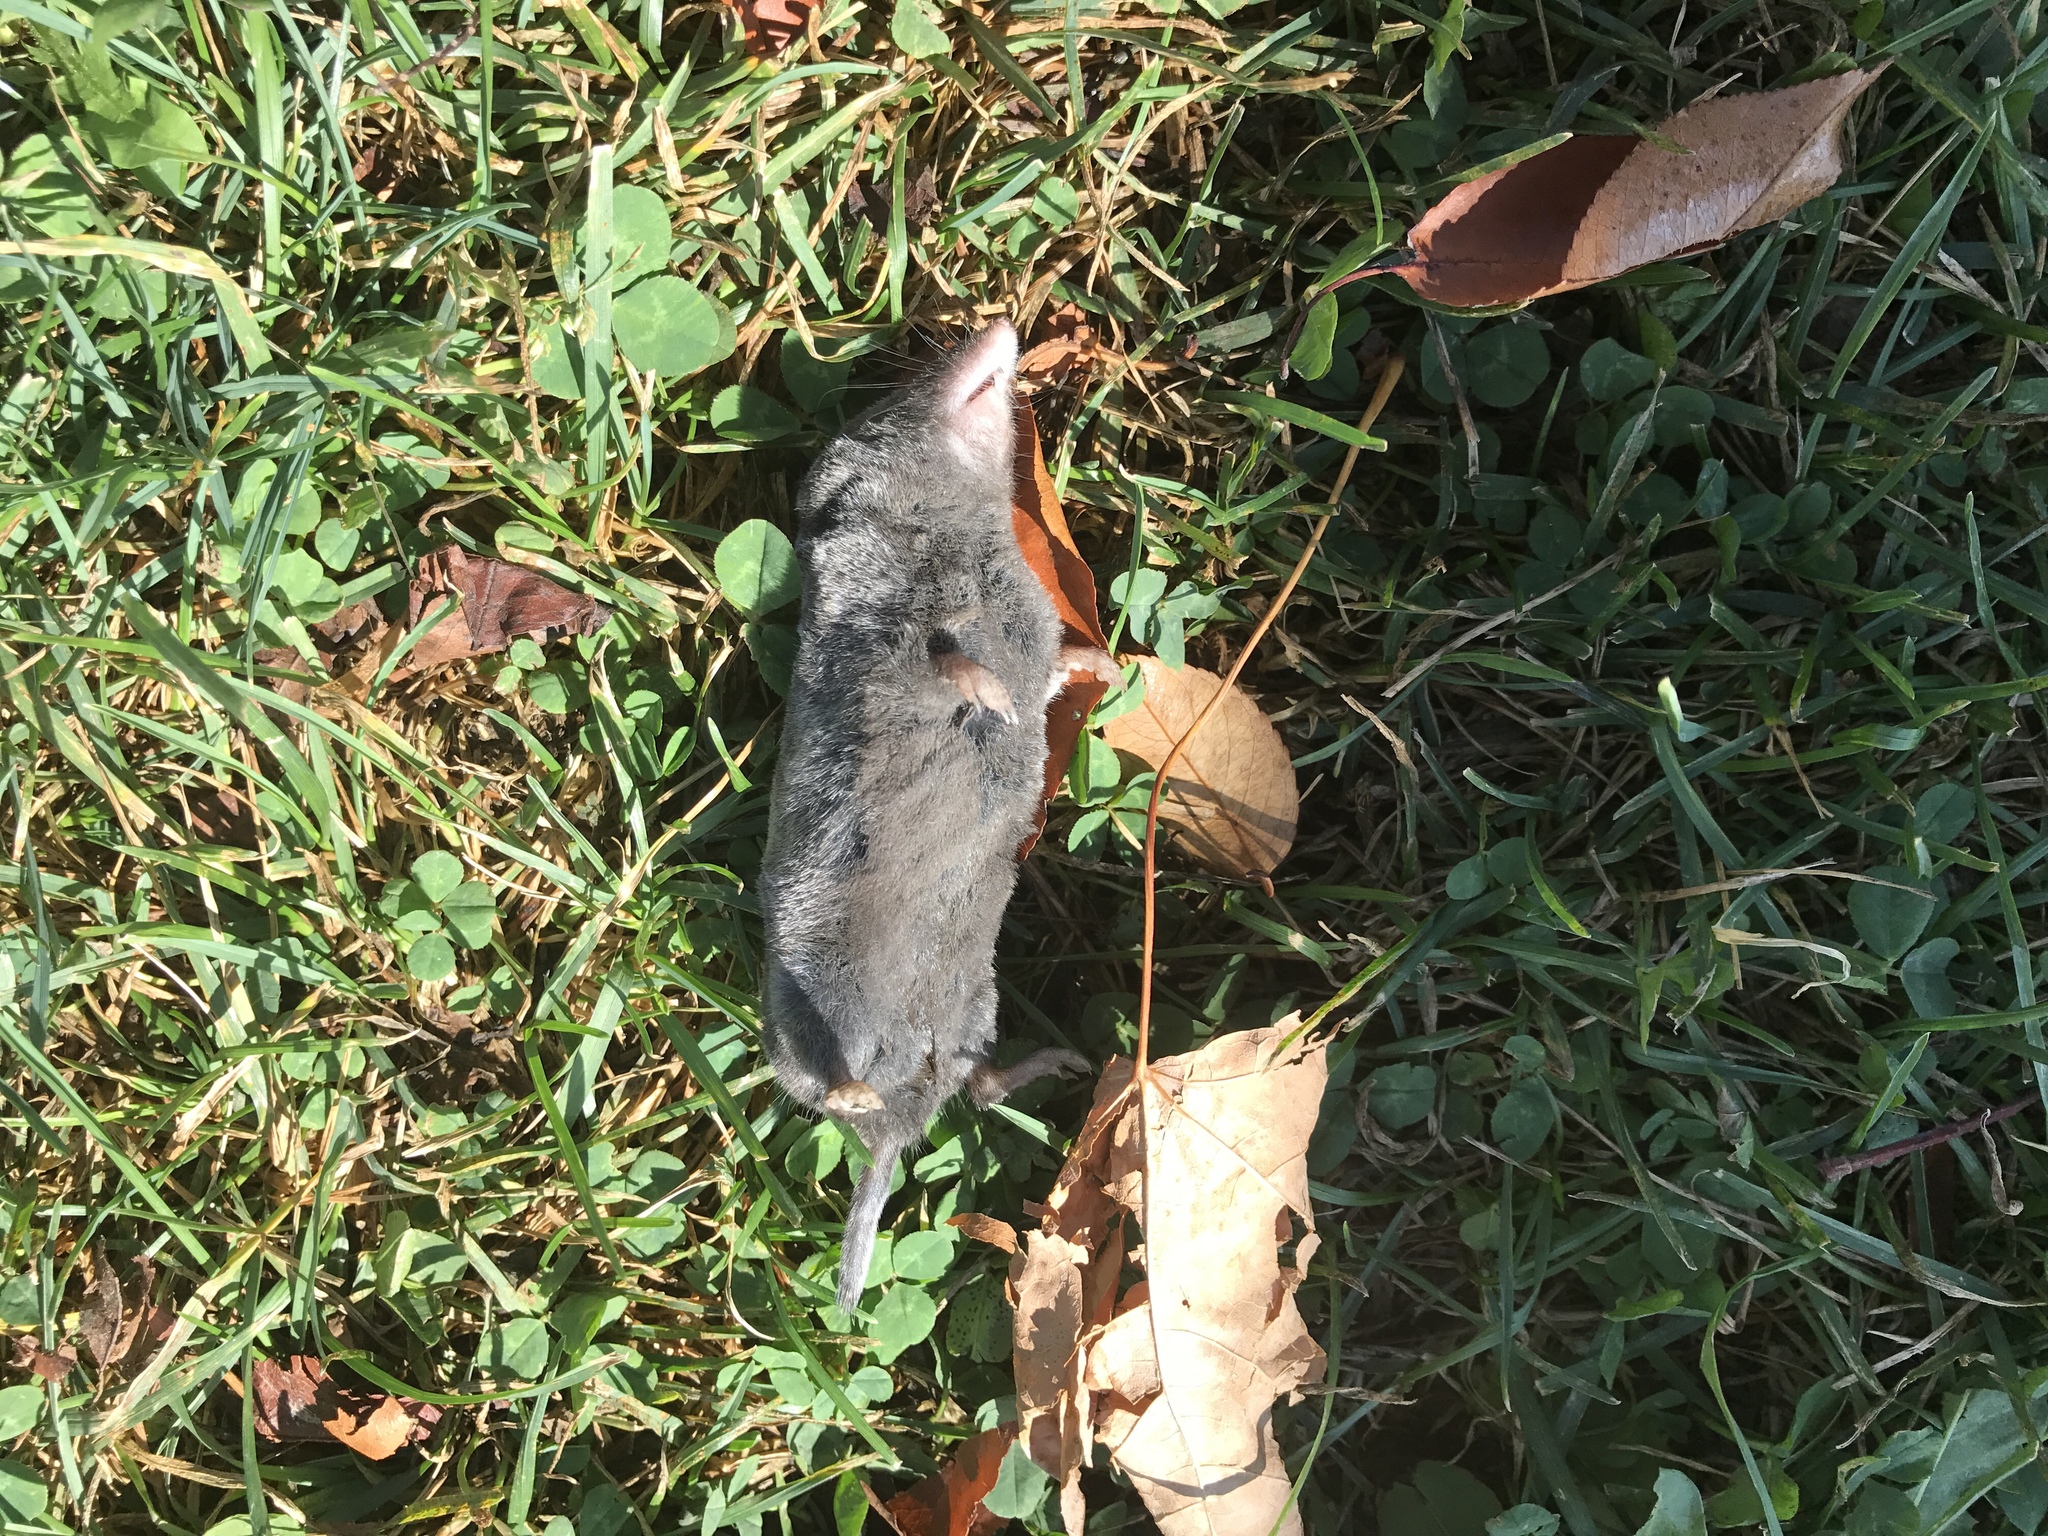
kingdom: Animalia
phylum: Chordata
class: Mammalia
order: Soricomorpha
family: Soricidae
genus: Blarina
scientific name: Blarina brevicauda
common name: Northern short-tailed shrew
